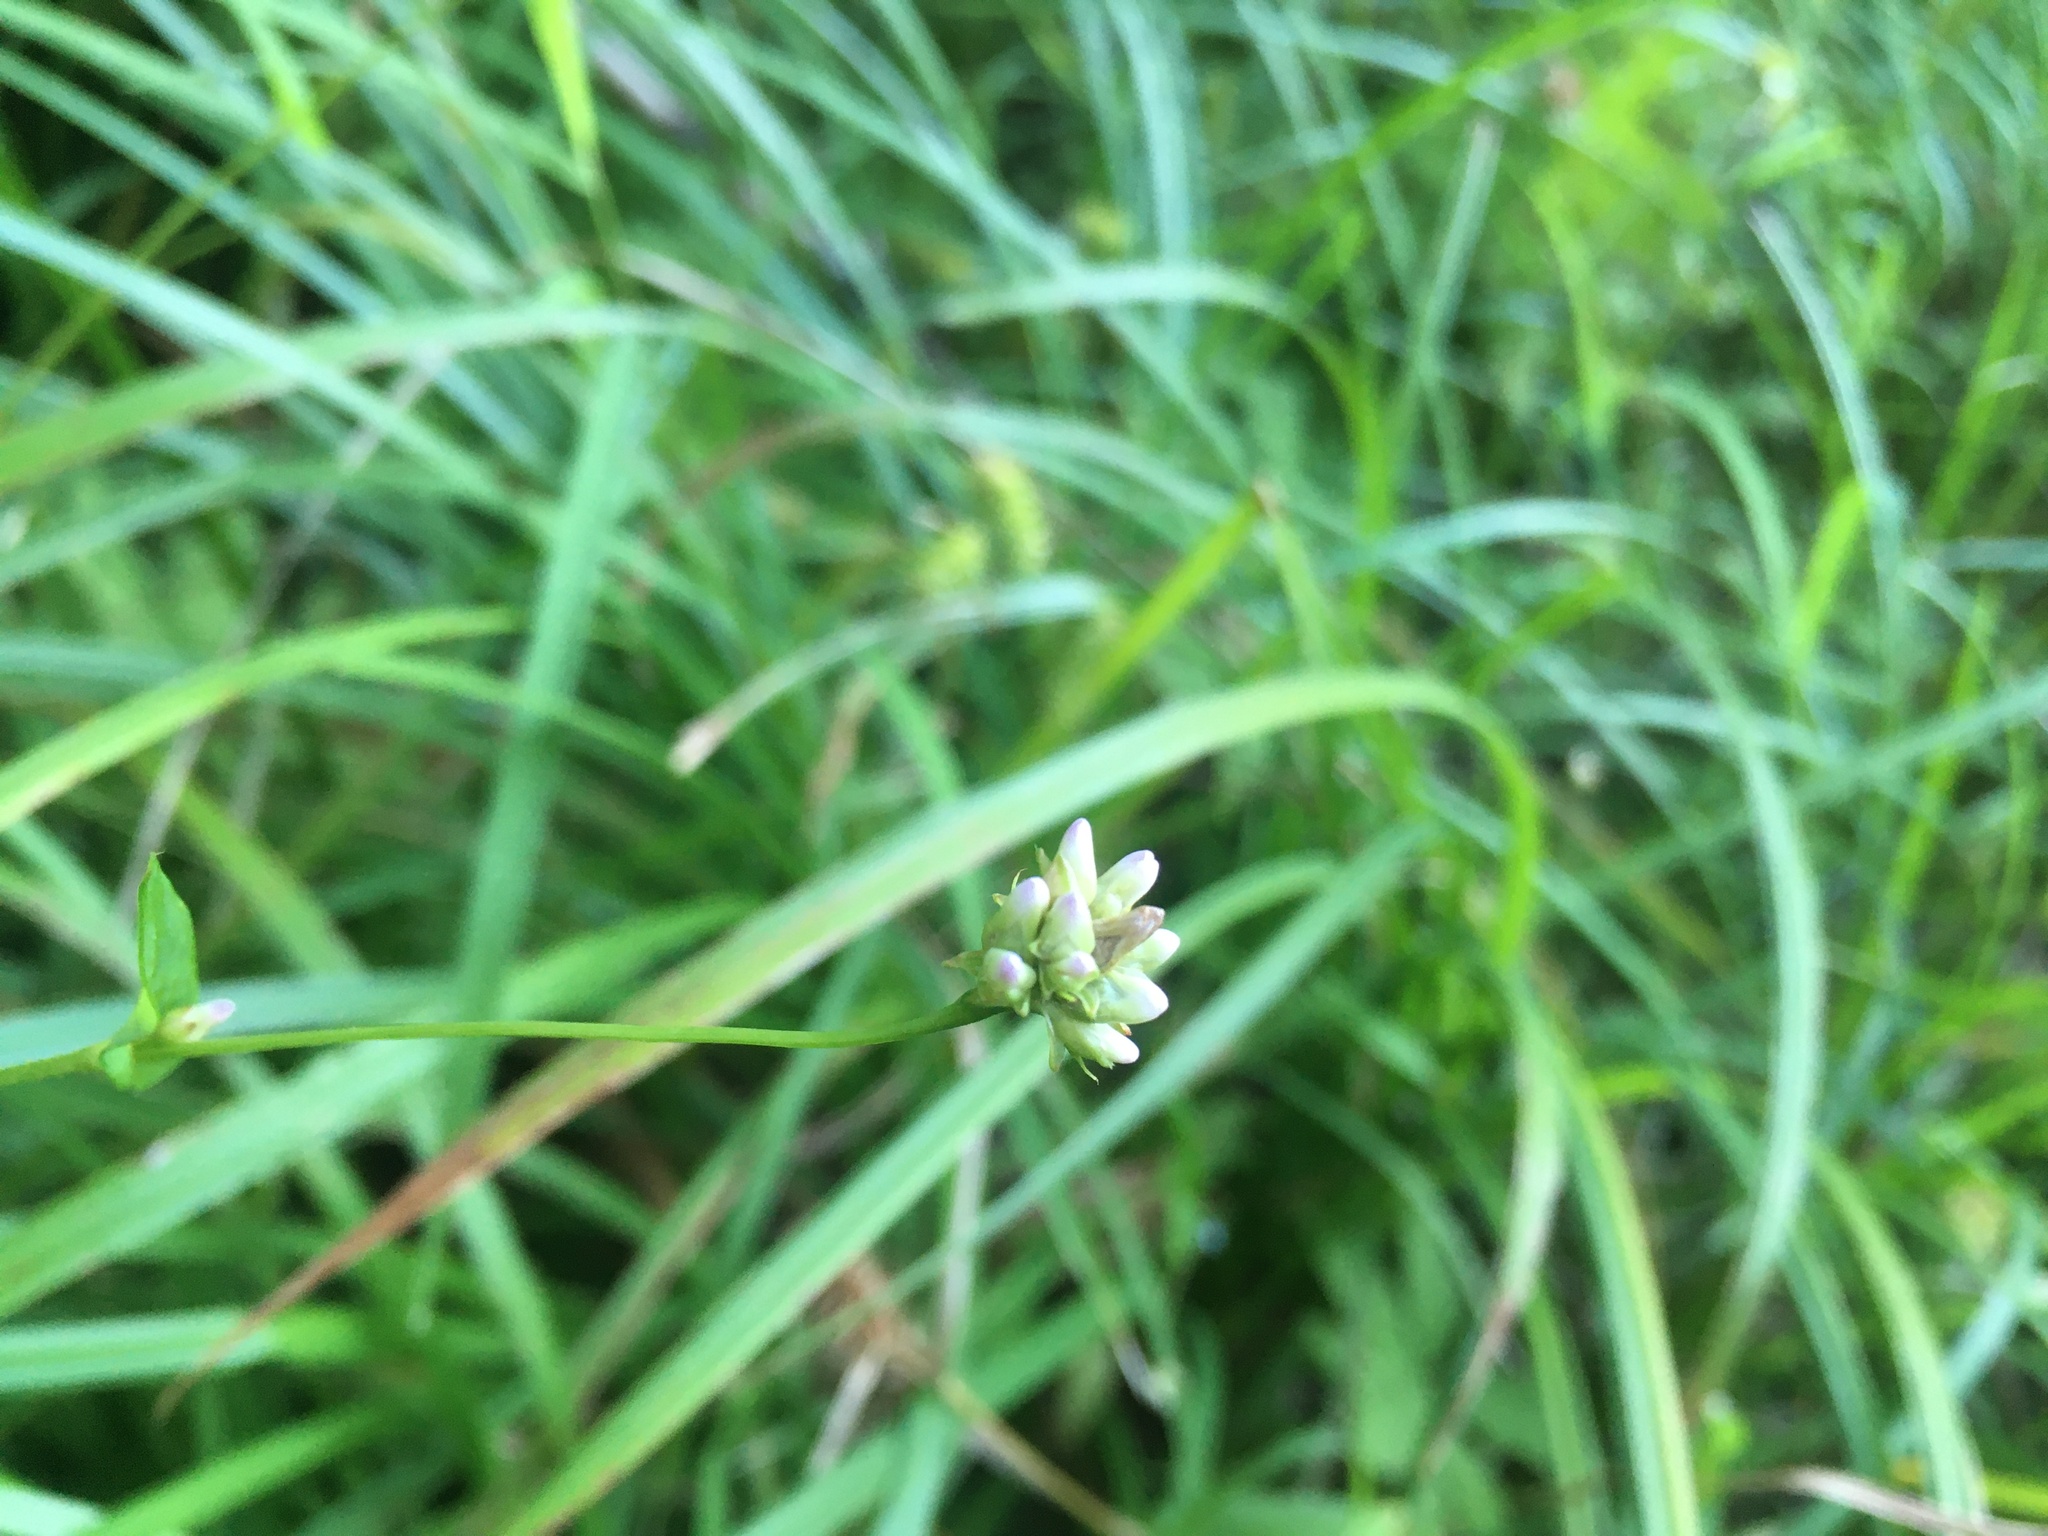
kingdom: Plantae
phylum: Tracheophyta
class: Magnoliopsida
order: Caryophyllales
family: Polygonaceae
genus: Persicaria
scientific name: Persicaria sagittata
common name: American tearthumb
